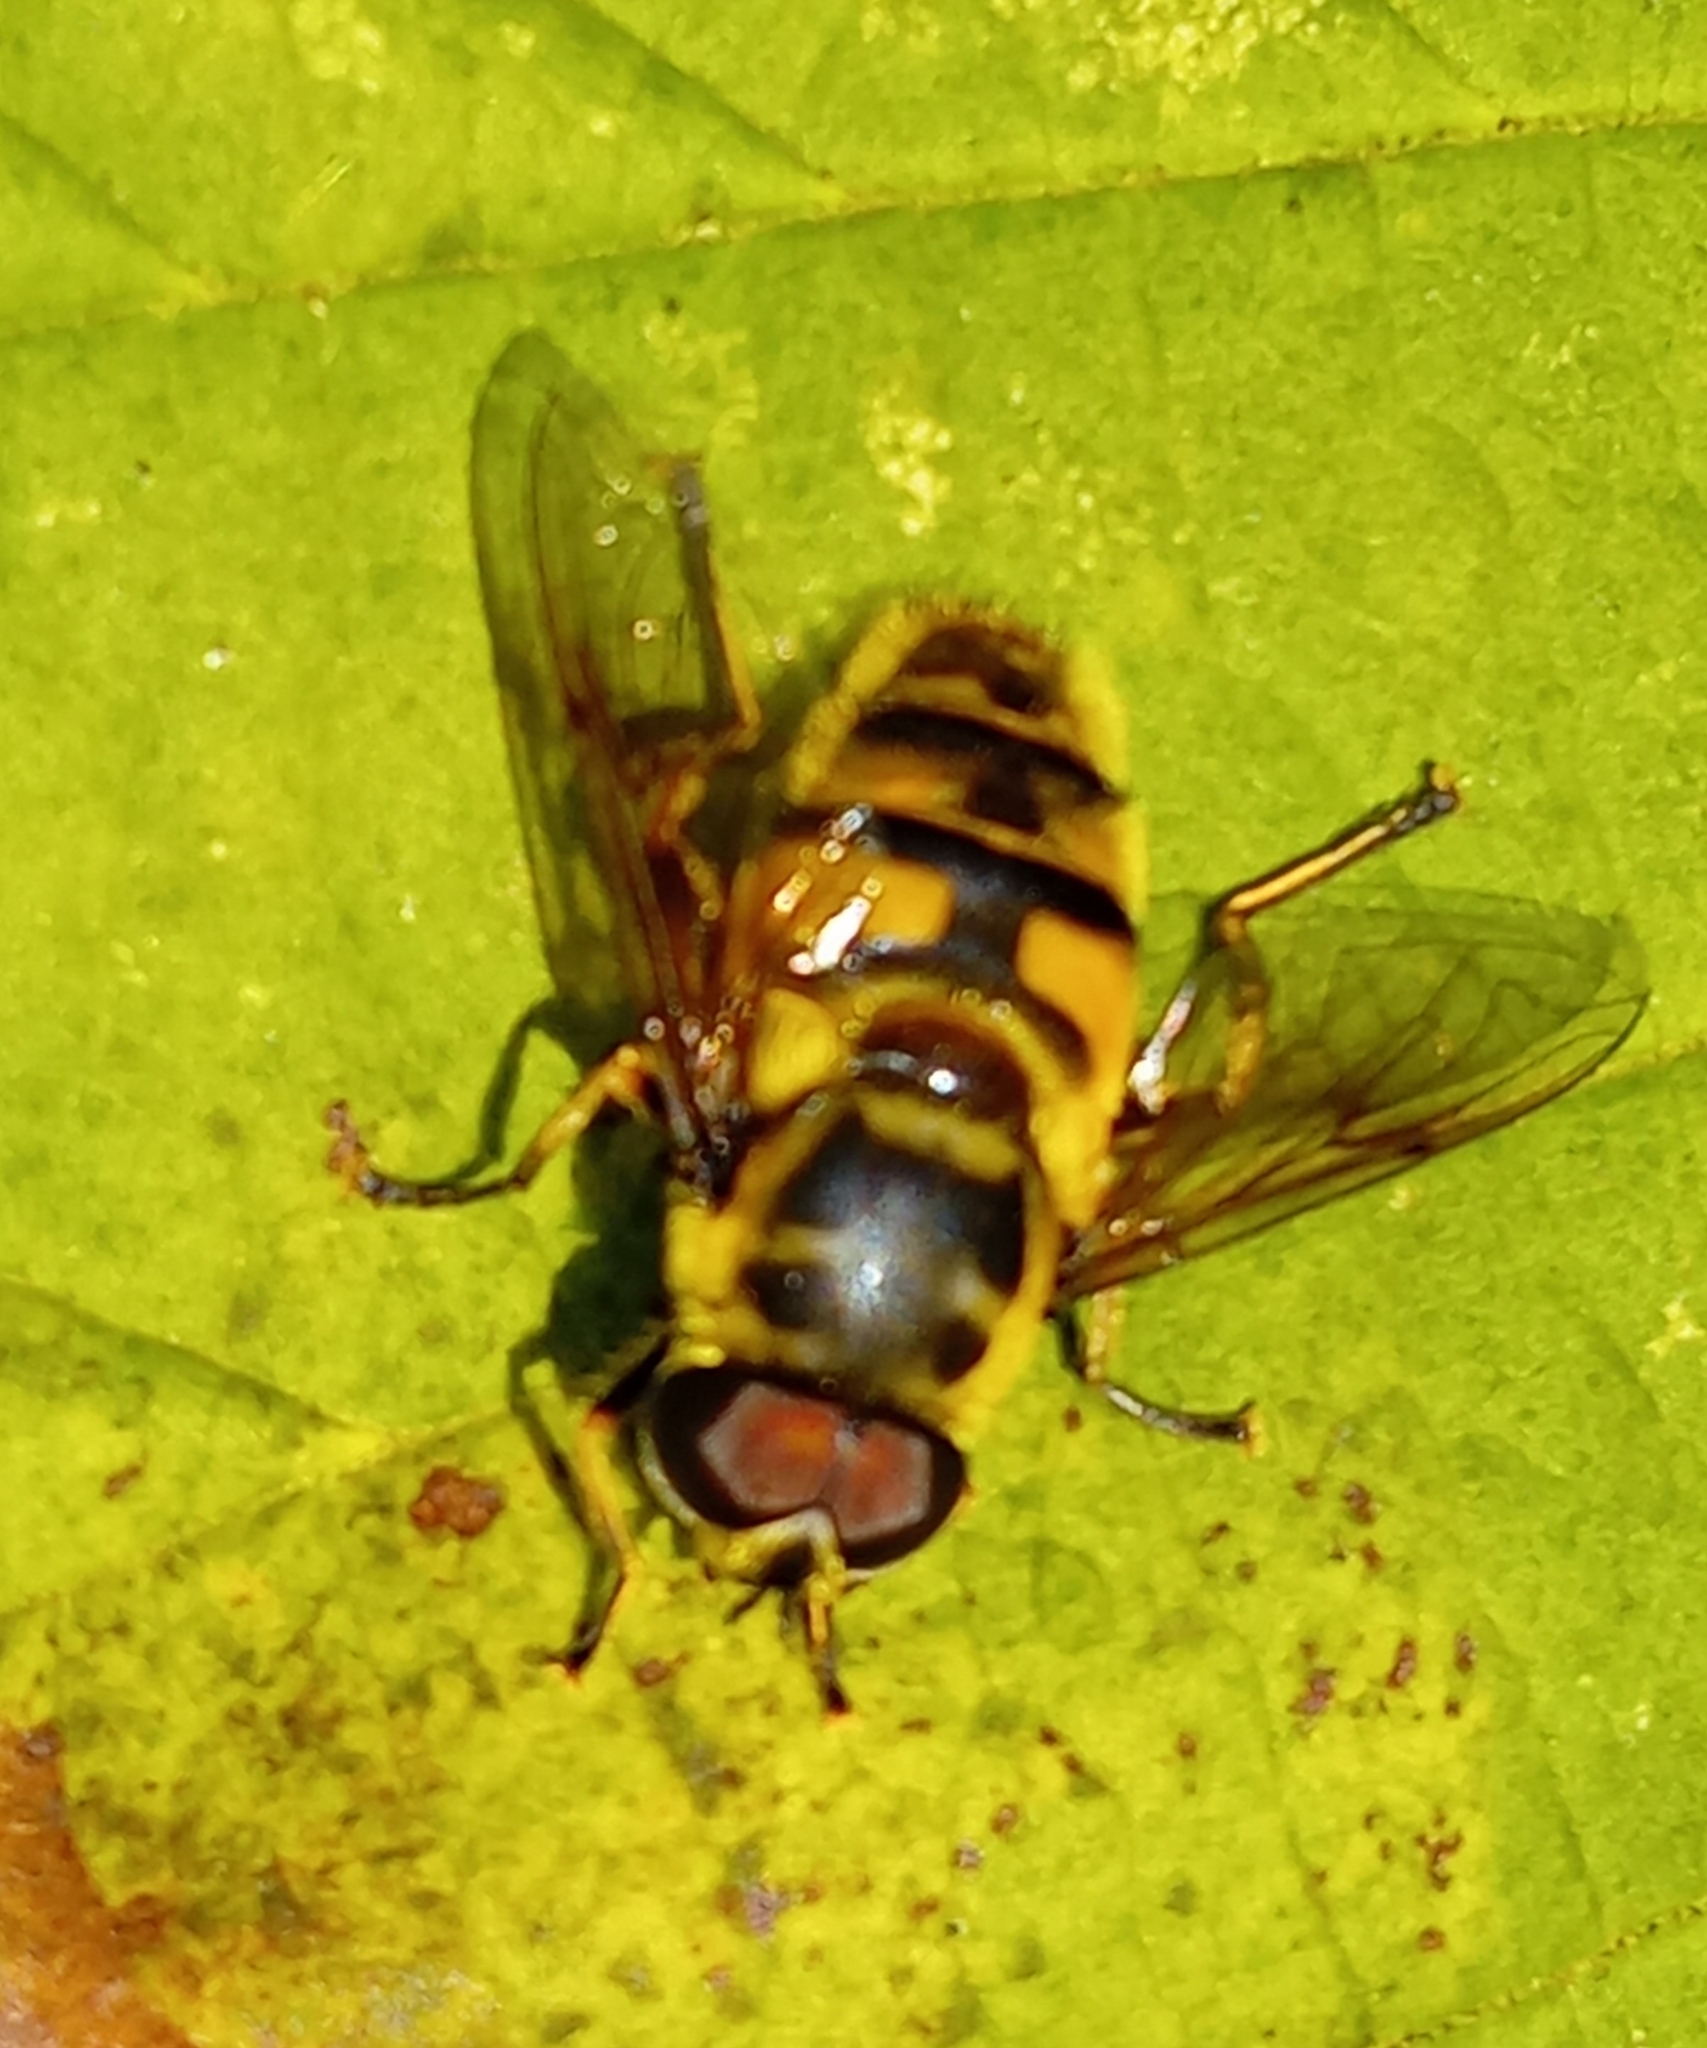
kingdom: Animalia
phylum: Arthropoda
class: Insecta
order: Diptera
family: Syrphidae
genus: Myathropa
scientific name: Myathropa florea
